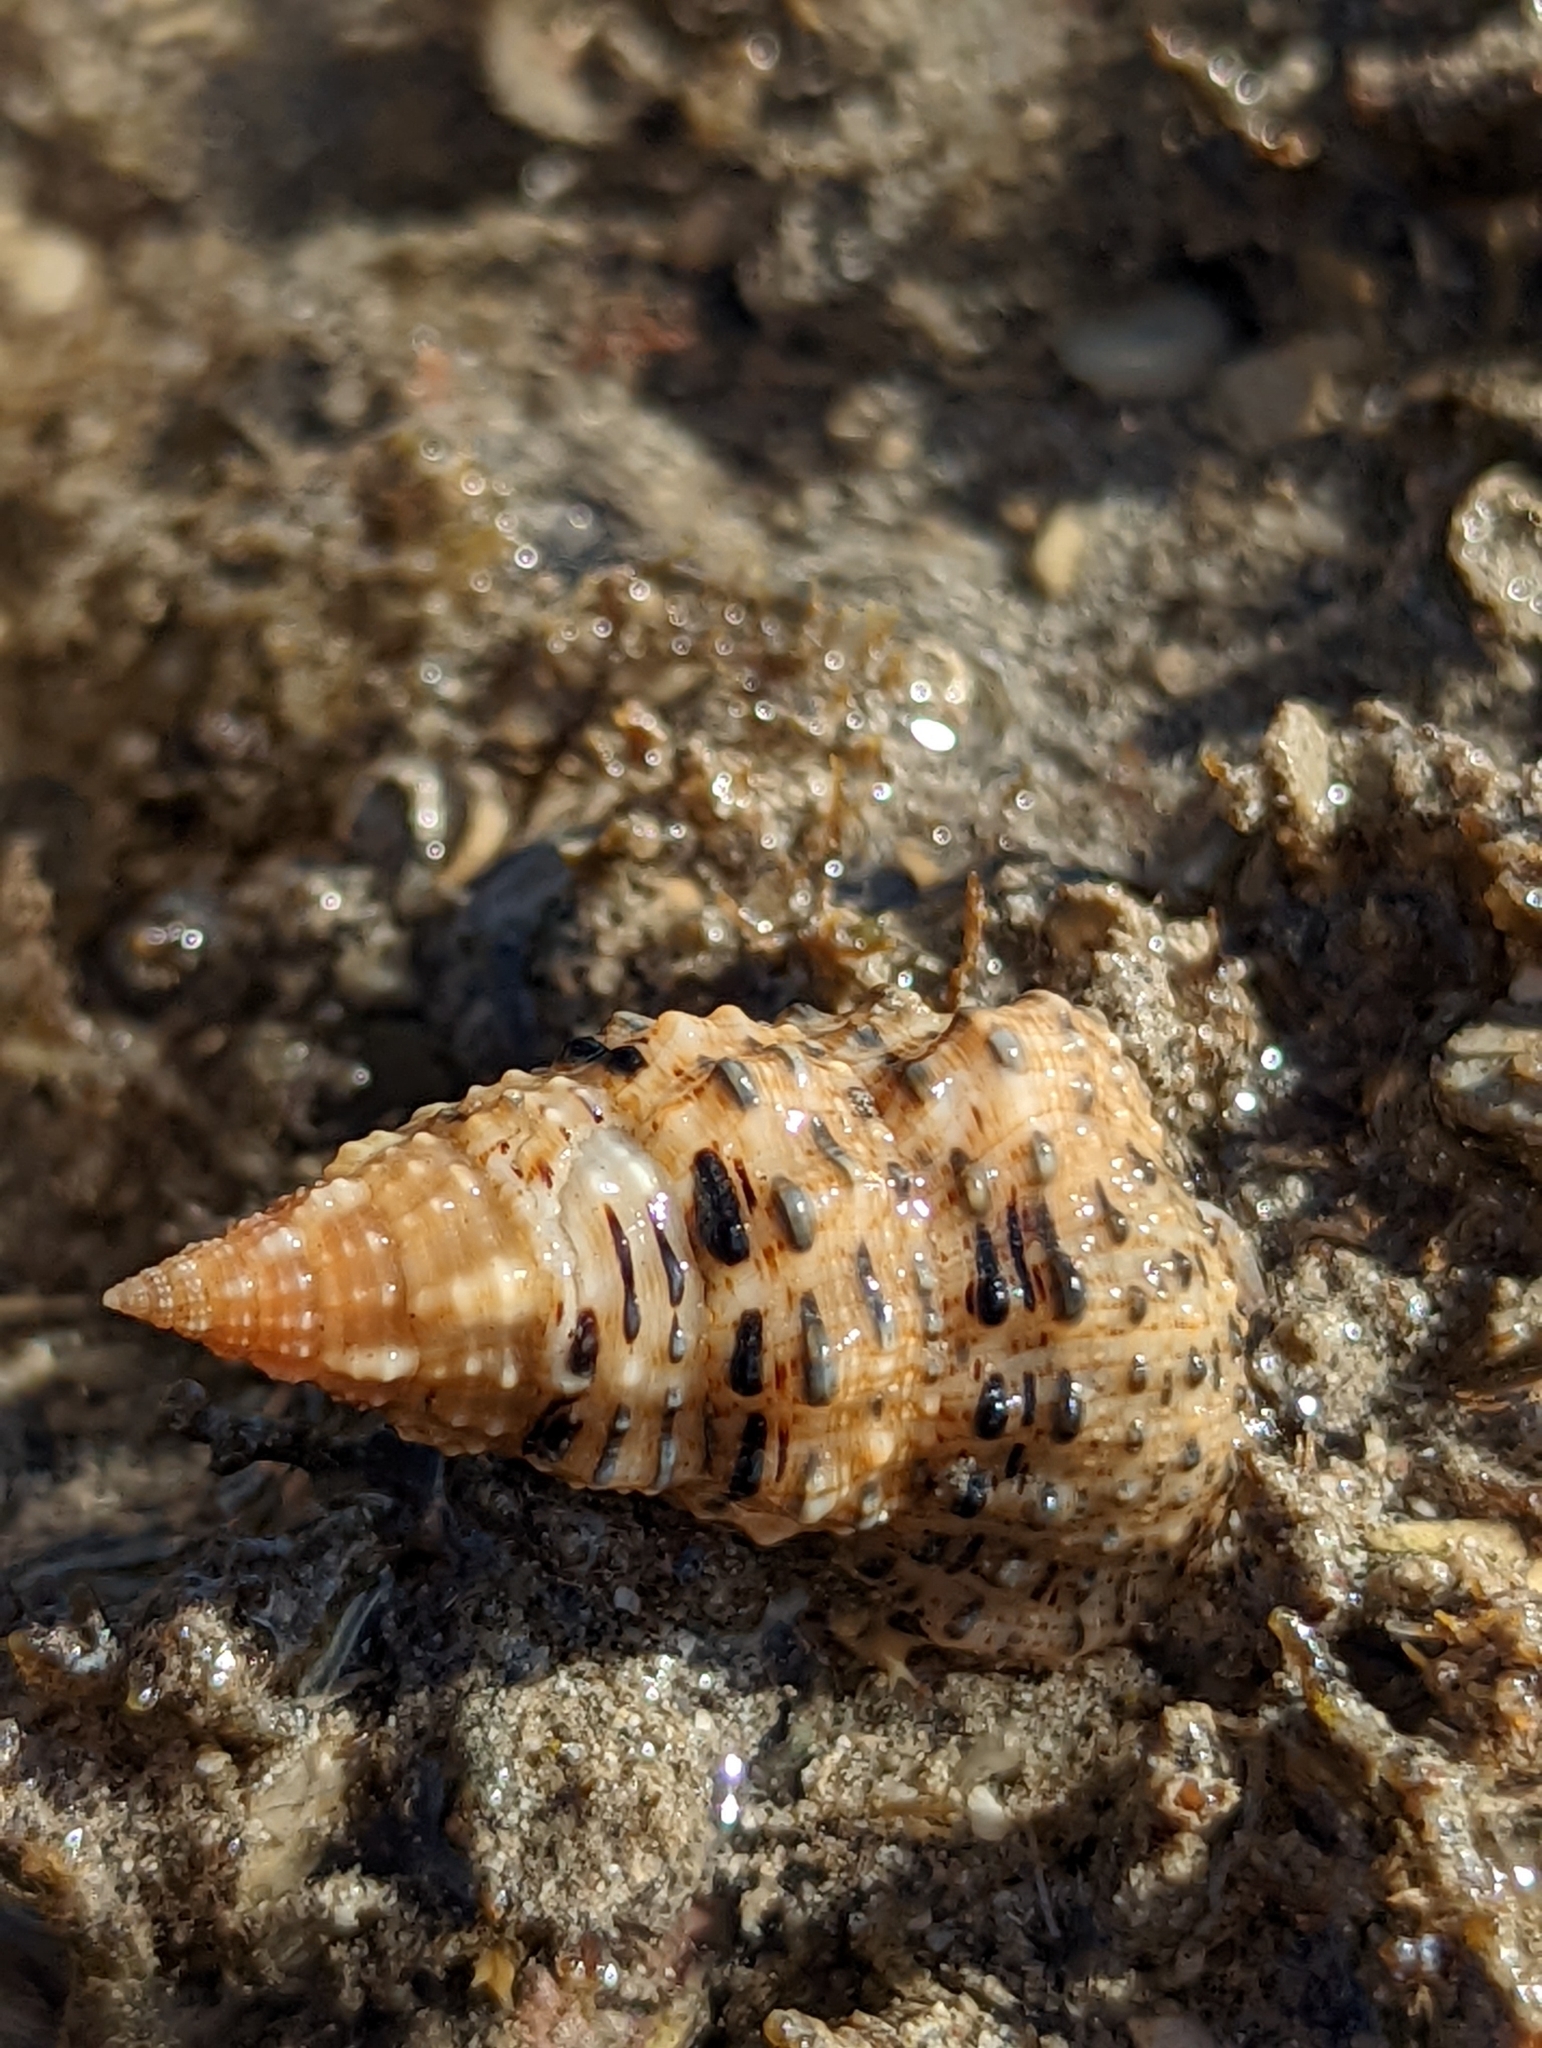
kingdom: Animalia
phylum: Mollusca
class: Gastropoda
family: Cerithiidae
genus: Clypeomorus
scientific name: Clypeomorus petrosa
